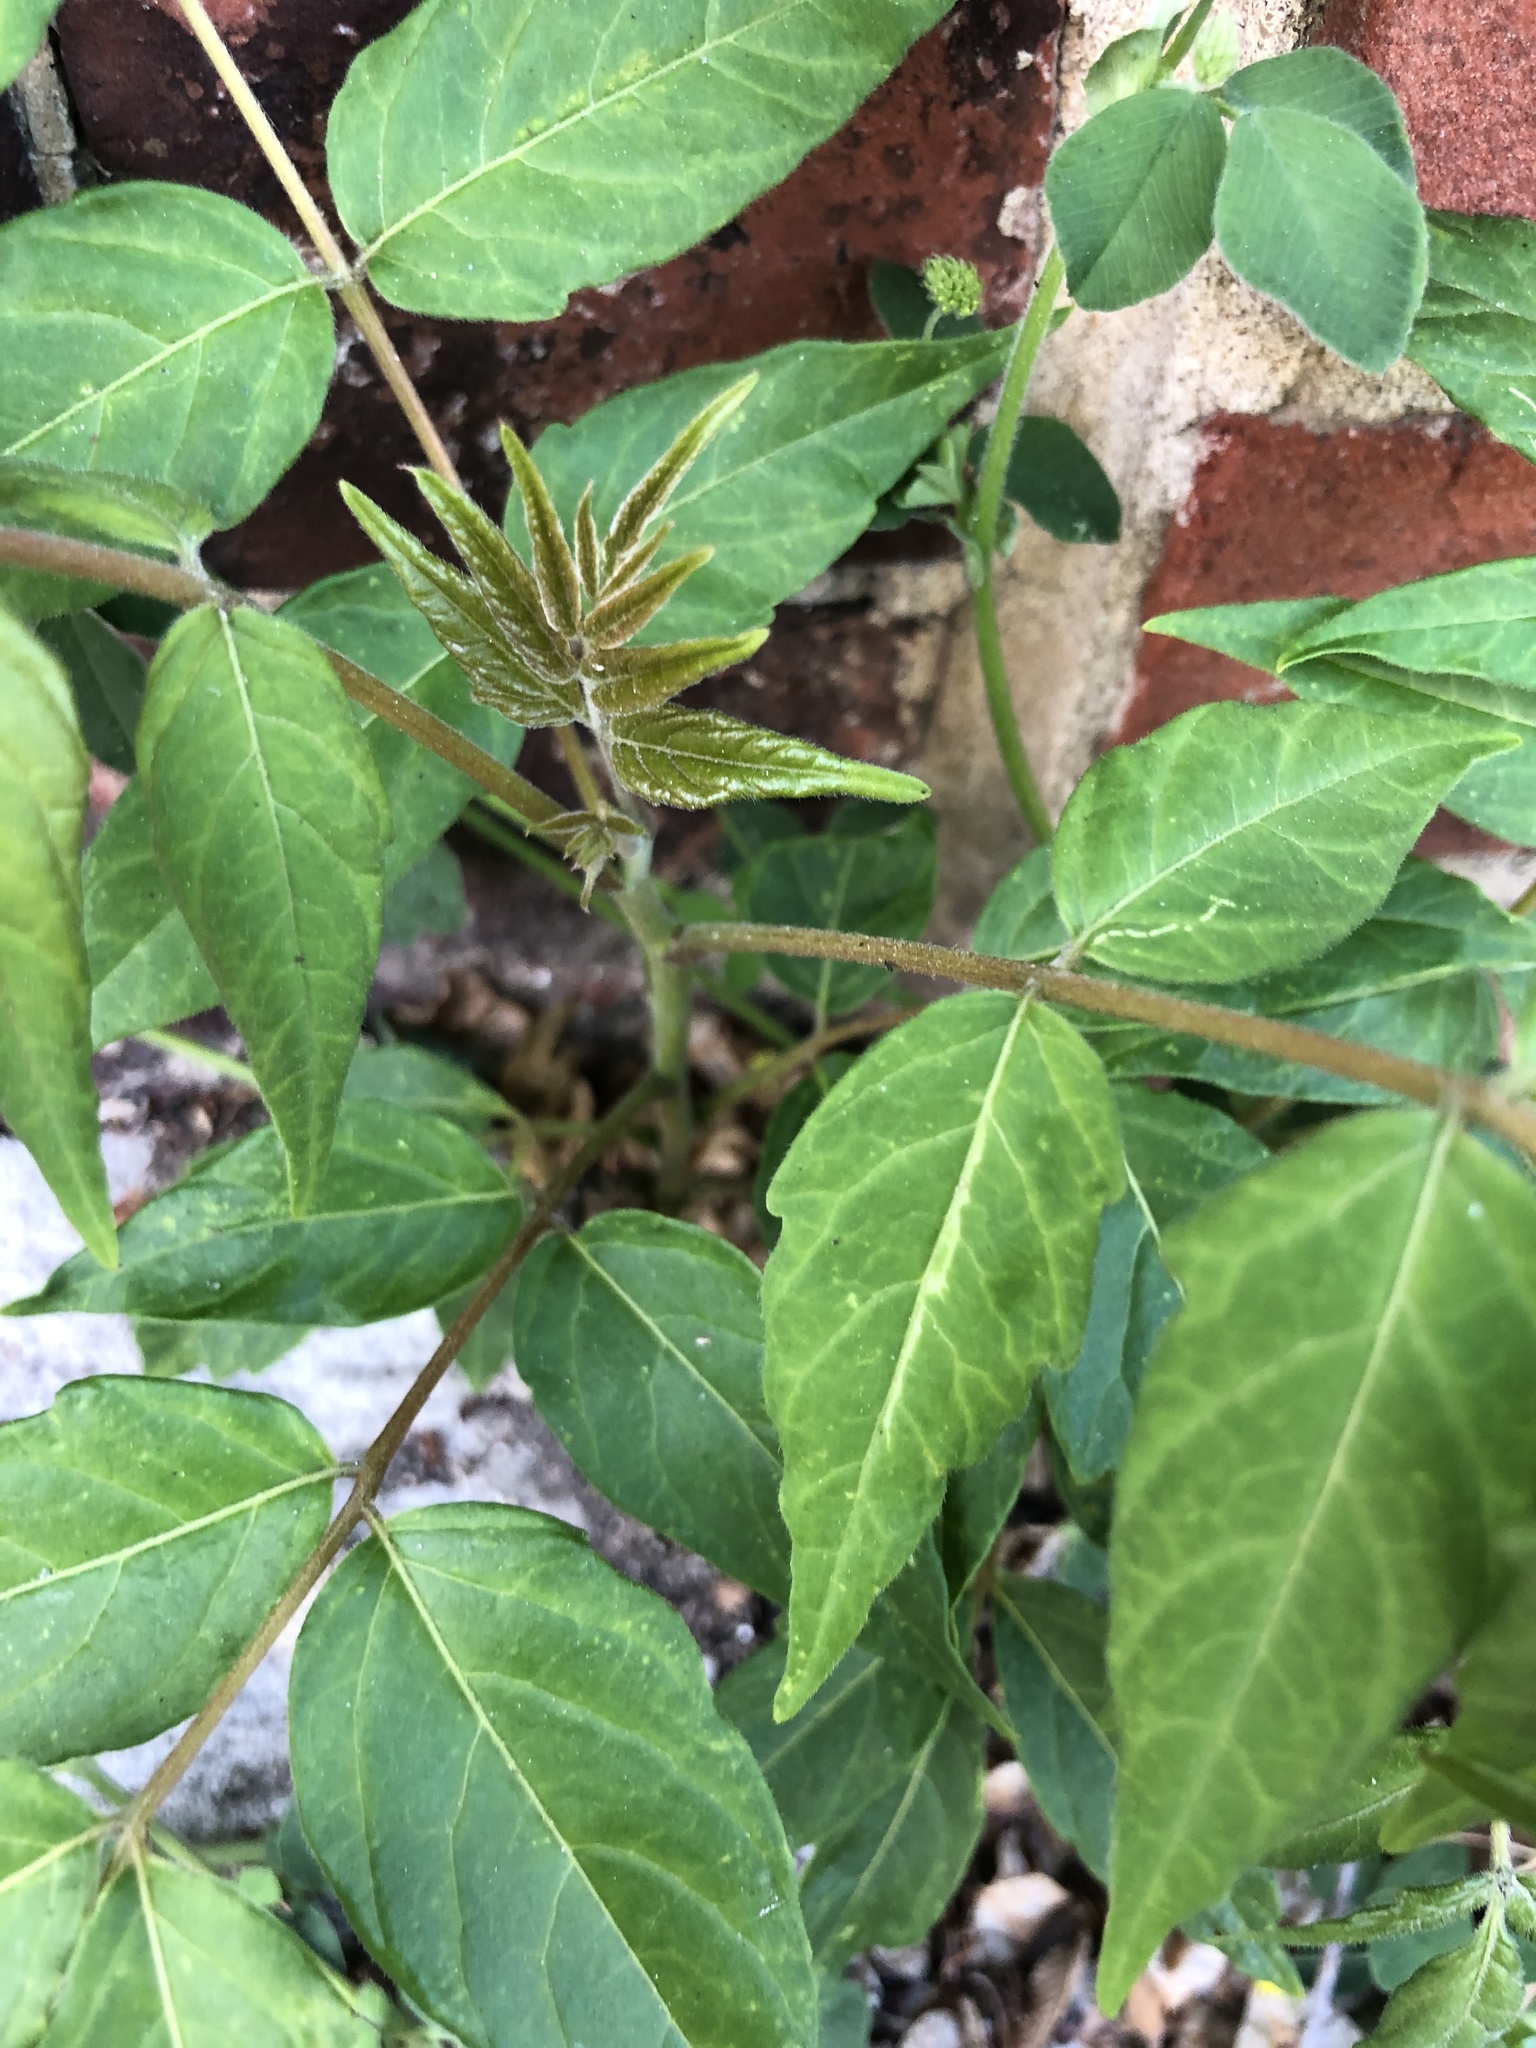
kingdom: Plantae
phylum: Tracheophyta
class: Magnoliopsida
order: Sapindales
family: Simaroubaceae
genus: Ailanthus
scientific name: Ailanthus altissima
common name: Tree-of-heaven
